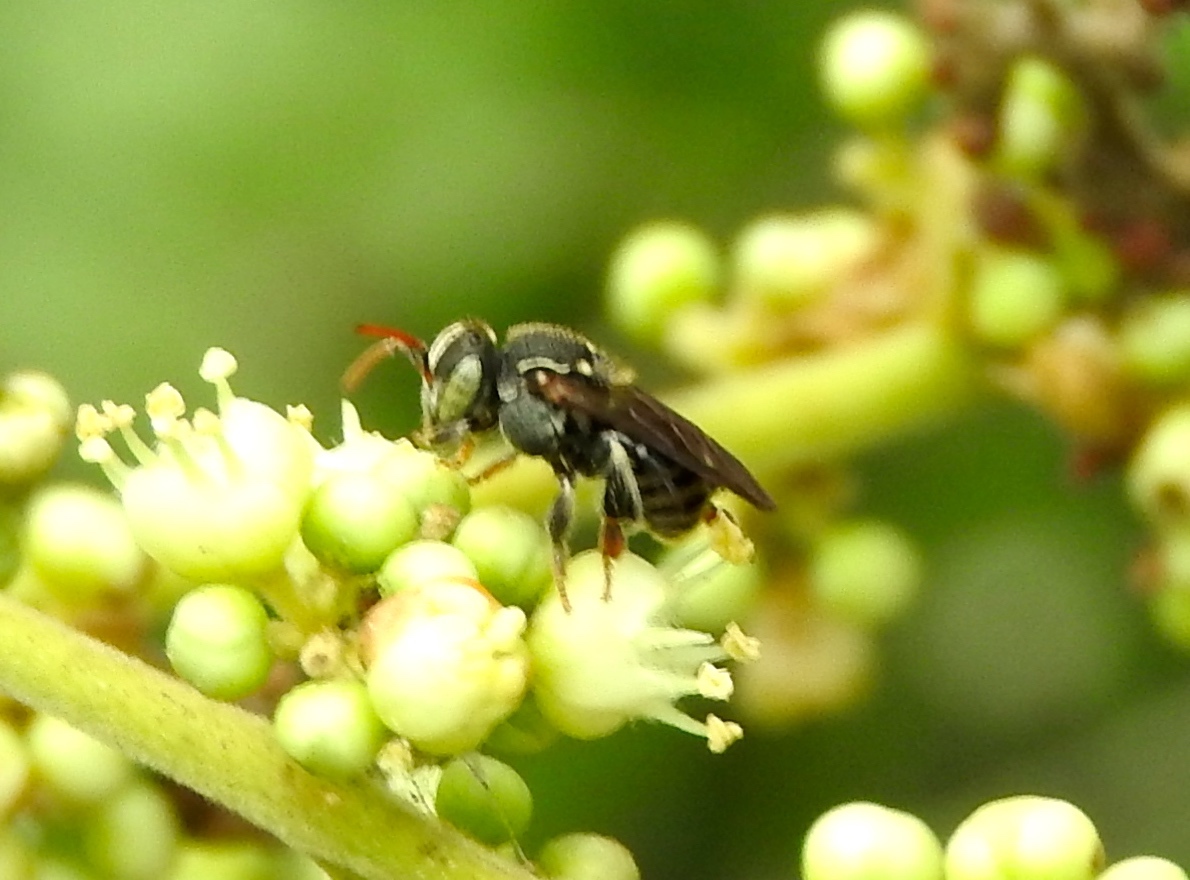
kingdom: Animalia
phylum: Arthropoda
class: Insecta
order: Hymenoptera
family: Apidae
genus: Nannotrigona
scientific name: Nannotrigona perilampoides
